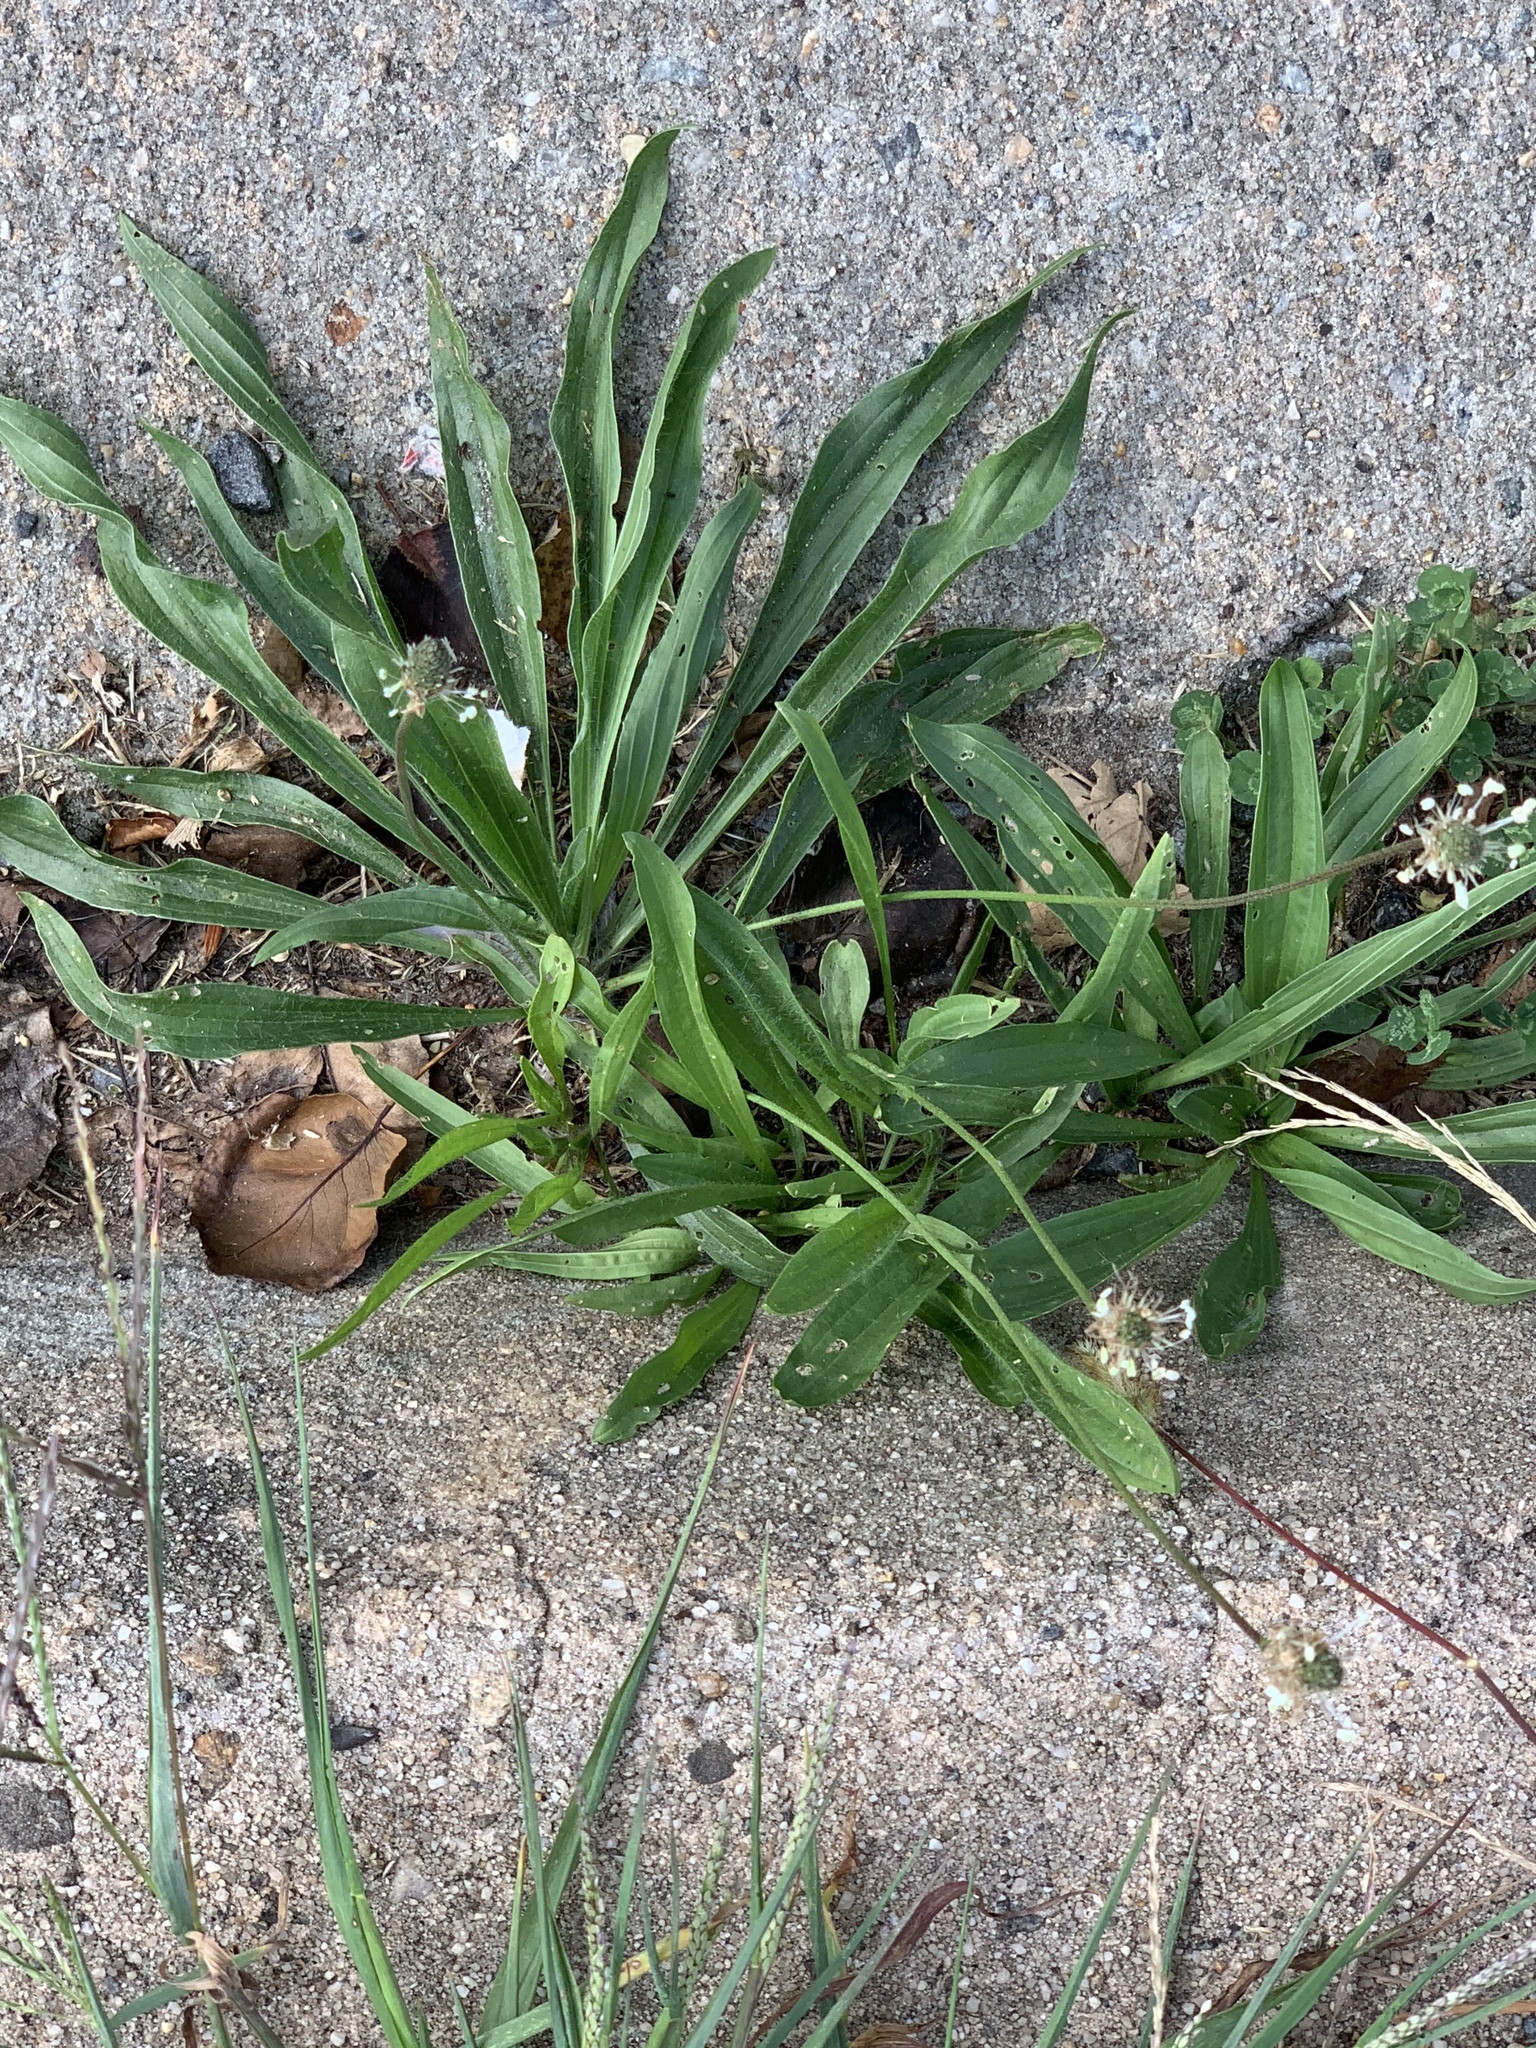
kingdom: Plantae
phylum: Tracheophyta
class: Magnoliopsida
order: Lamiales
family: Plantaginaceae
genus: Plantago
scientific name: Plantago lanceolata
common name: Ribwort plantain
